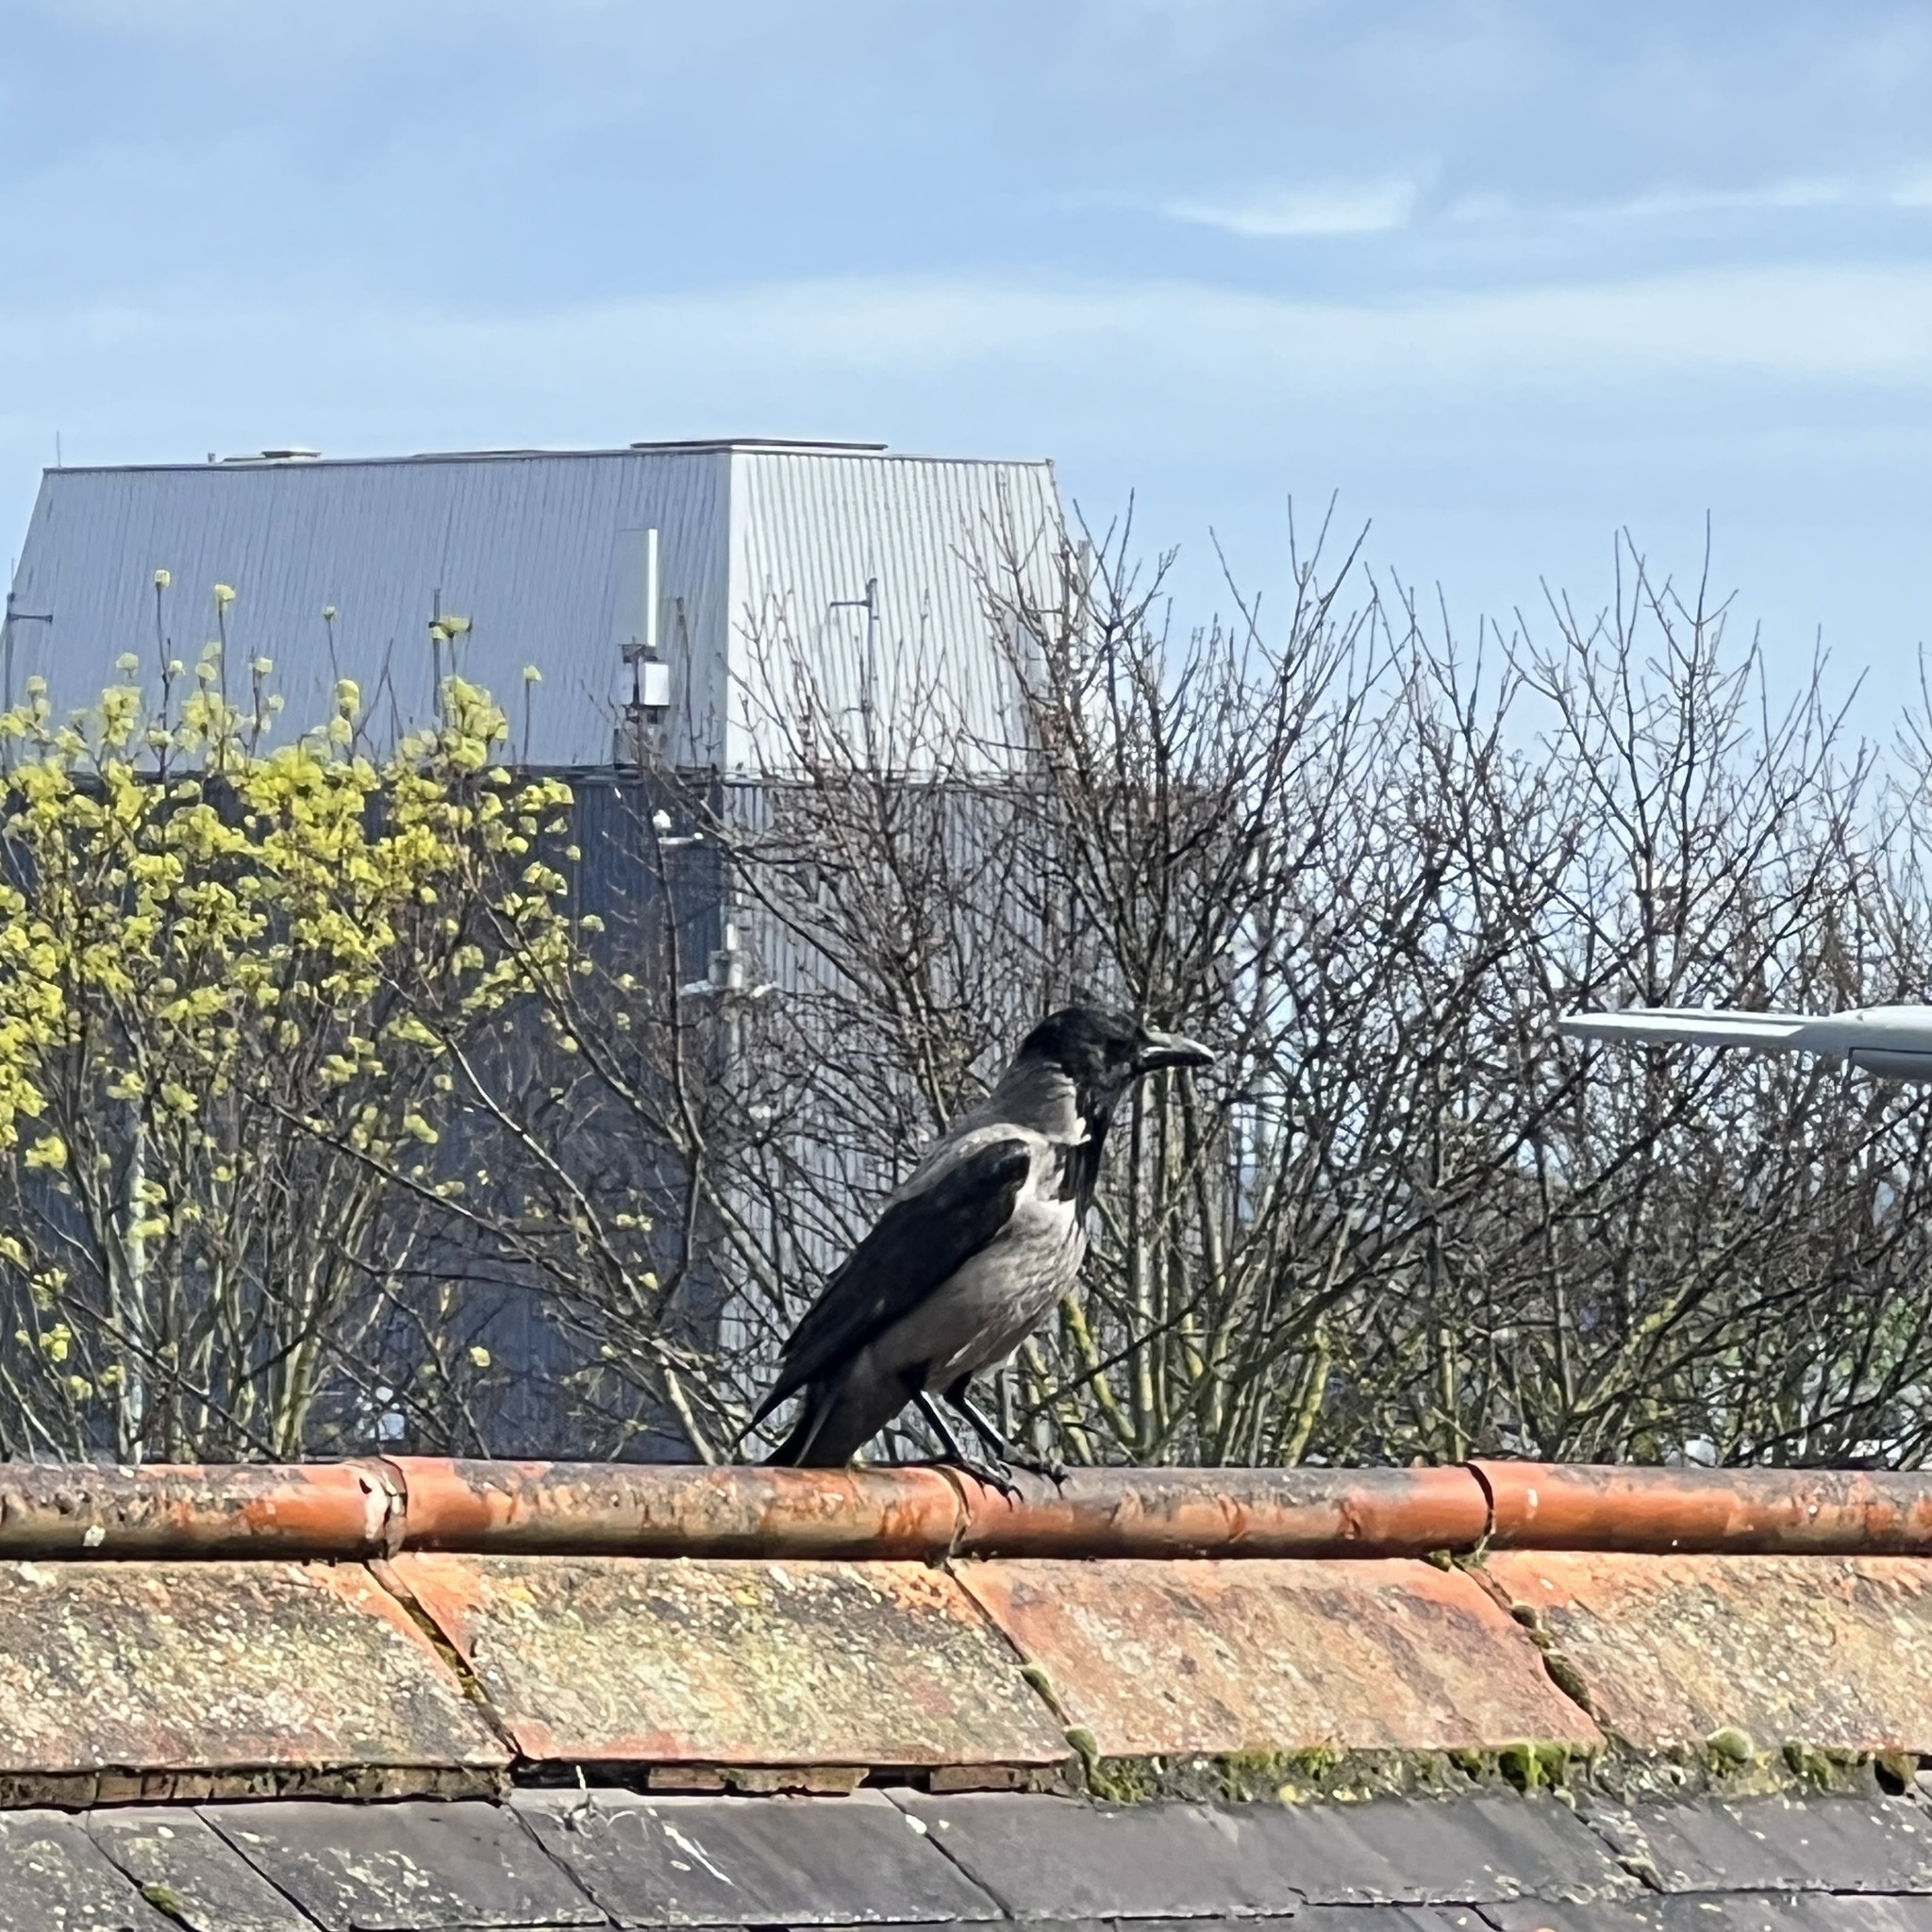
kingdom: Animalia
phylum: Chordata
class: Aves
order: Passeriformes
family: Corvidae
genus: Corvus
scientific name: Corvus cornix
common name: Hooded crow
